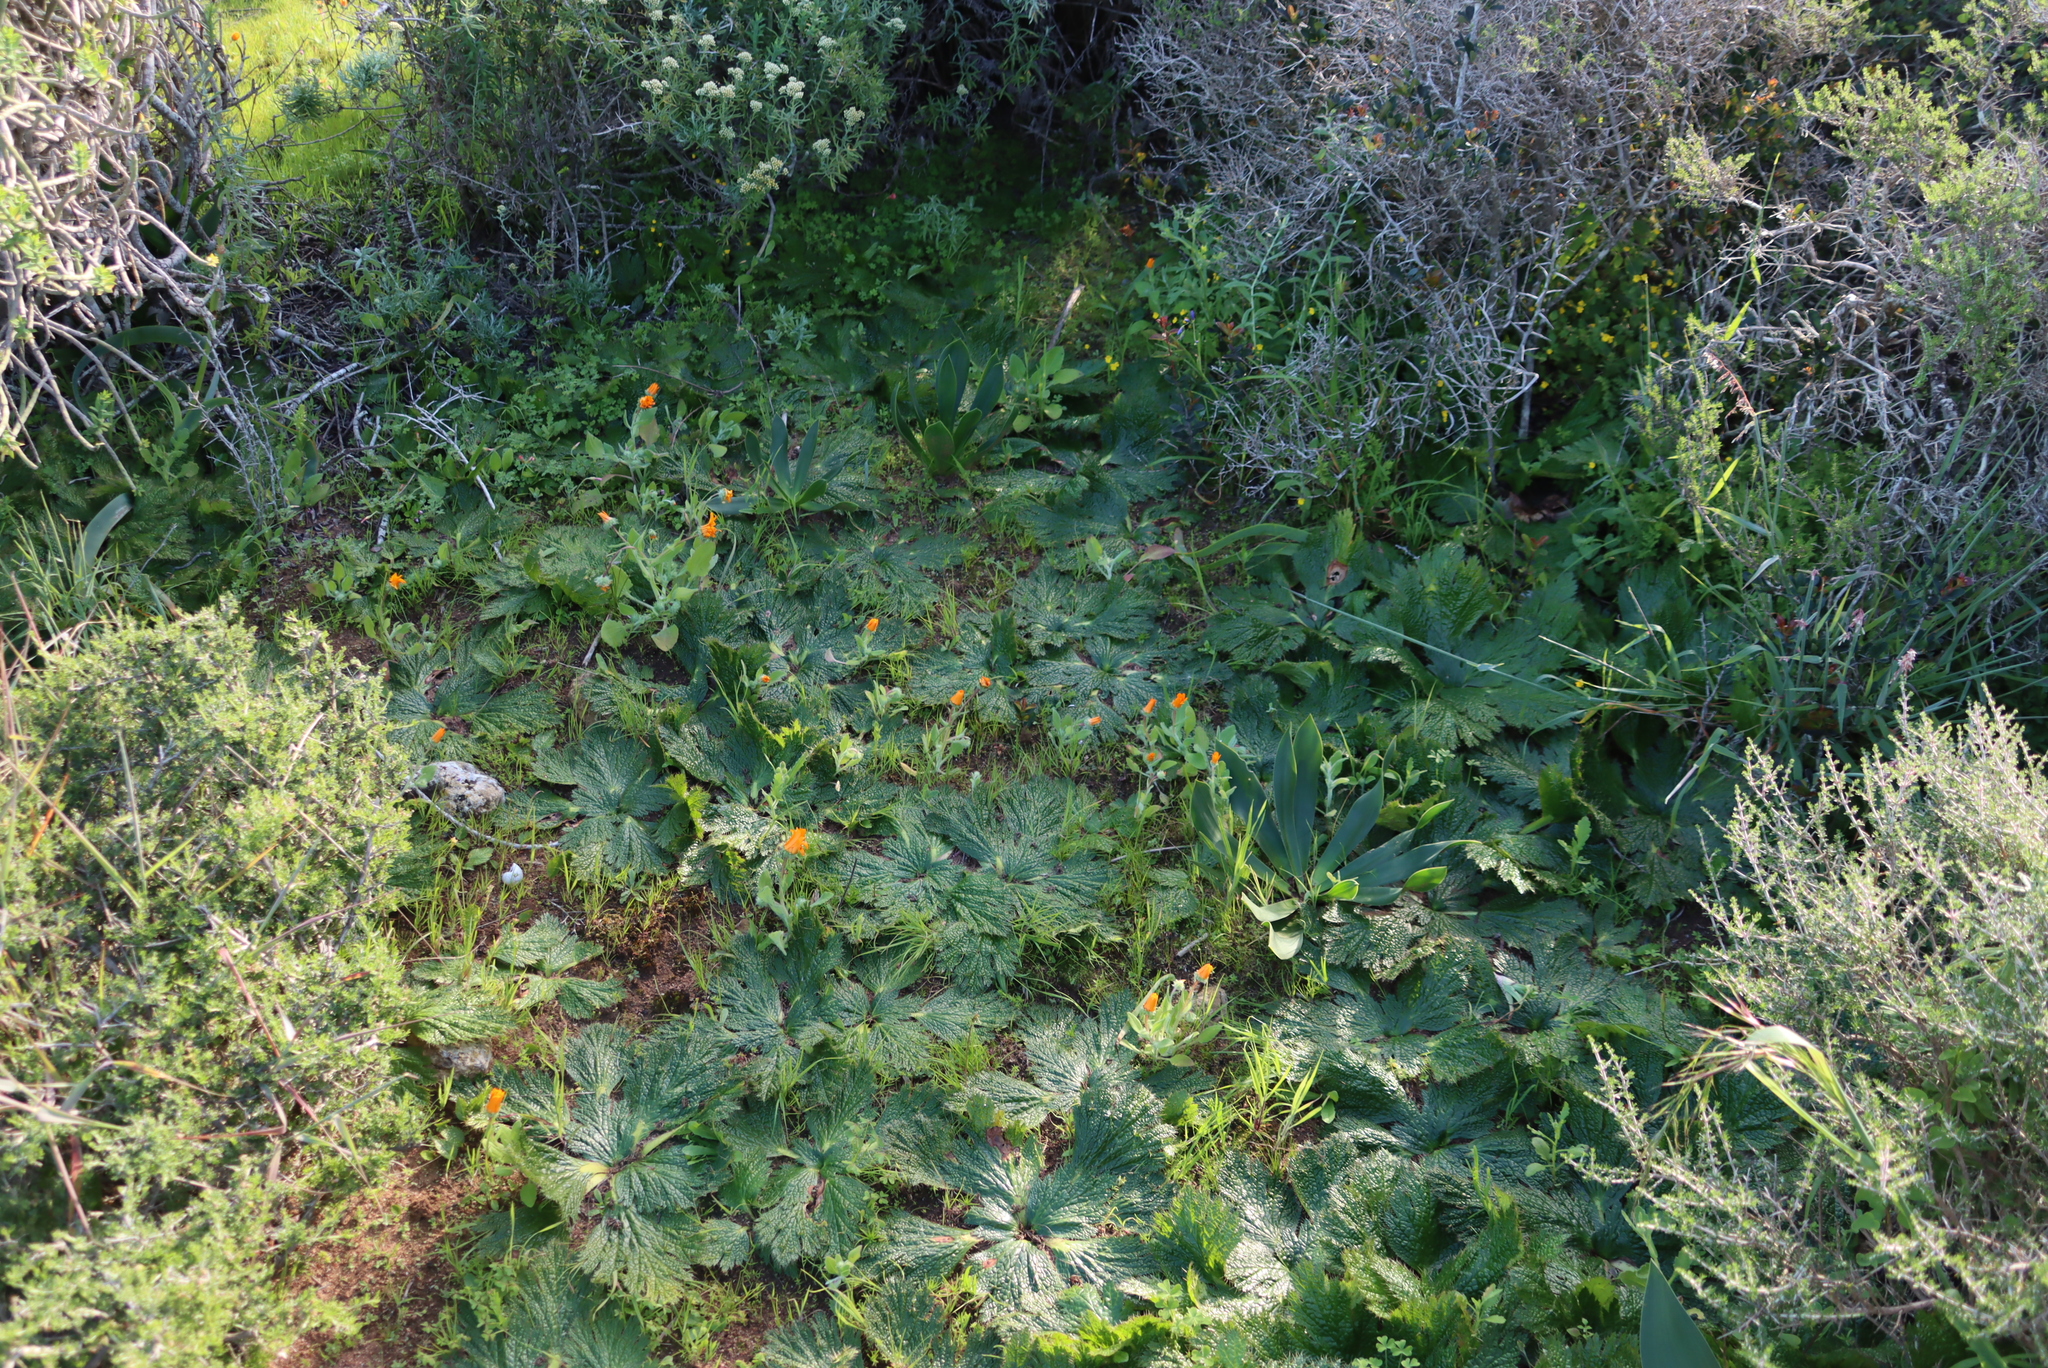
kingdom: Plantae
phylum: Tracheophyta
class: Magnoliopsida
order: Apiales
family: Apiaceae
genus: Arctopus
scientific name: Arctopus echinatus
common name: Platdoring
